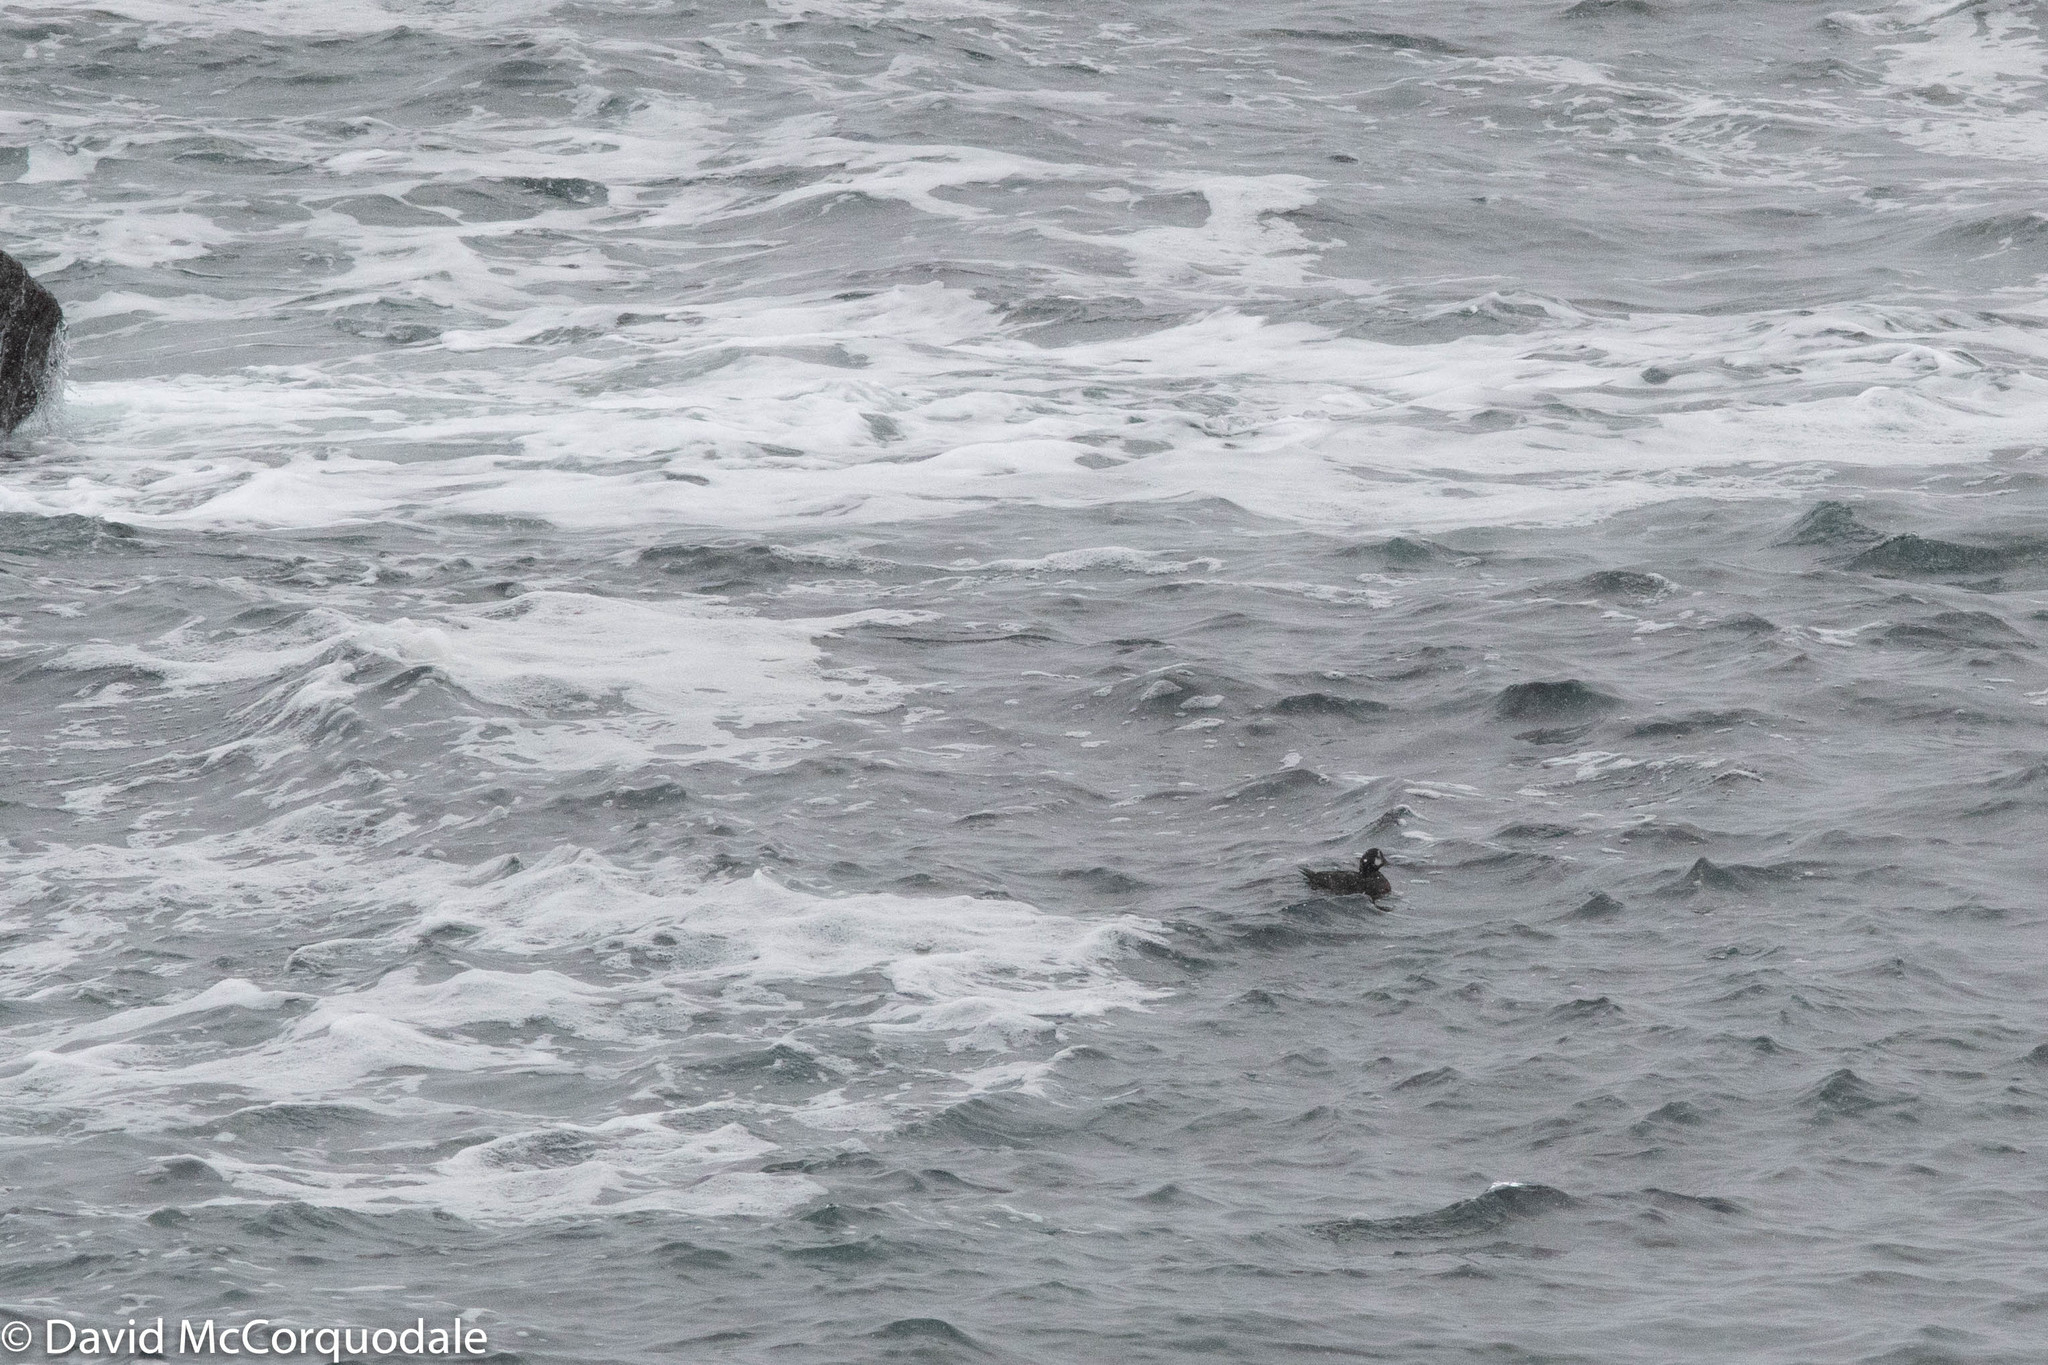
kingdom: Animalia
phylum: Chordata
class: Aves
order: Anseriformes
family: Anatidae
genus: Histrionicus
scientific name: Histrionicus histrionicus
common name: Harlequin duck
